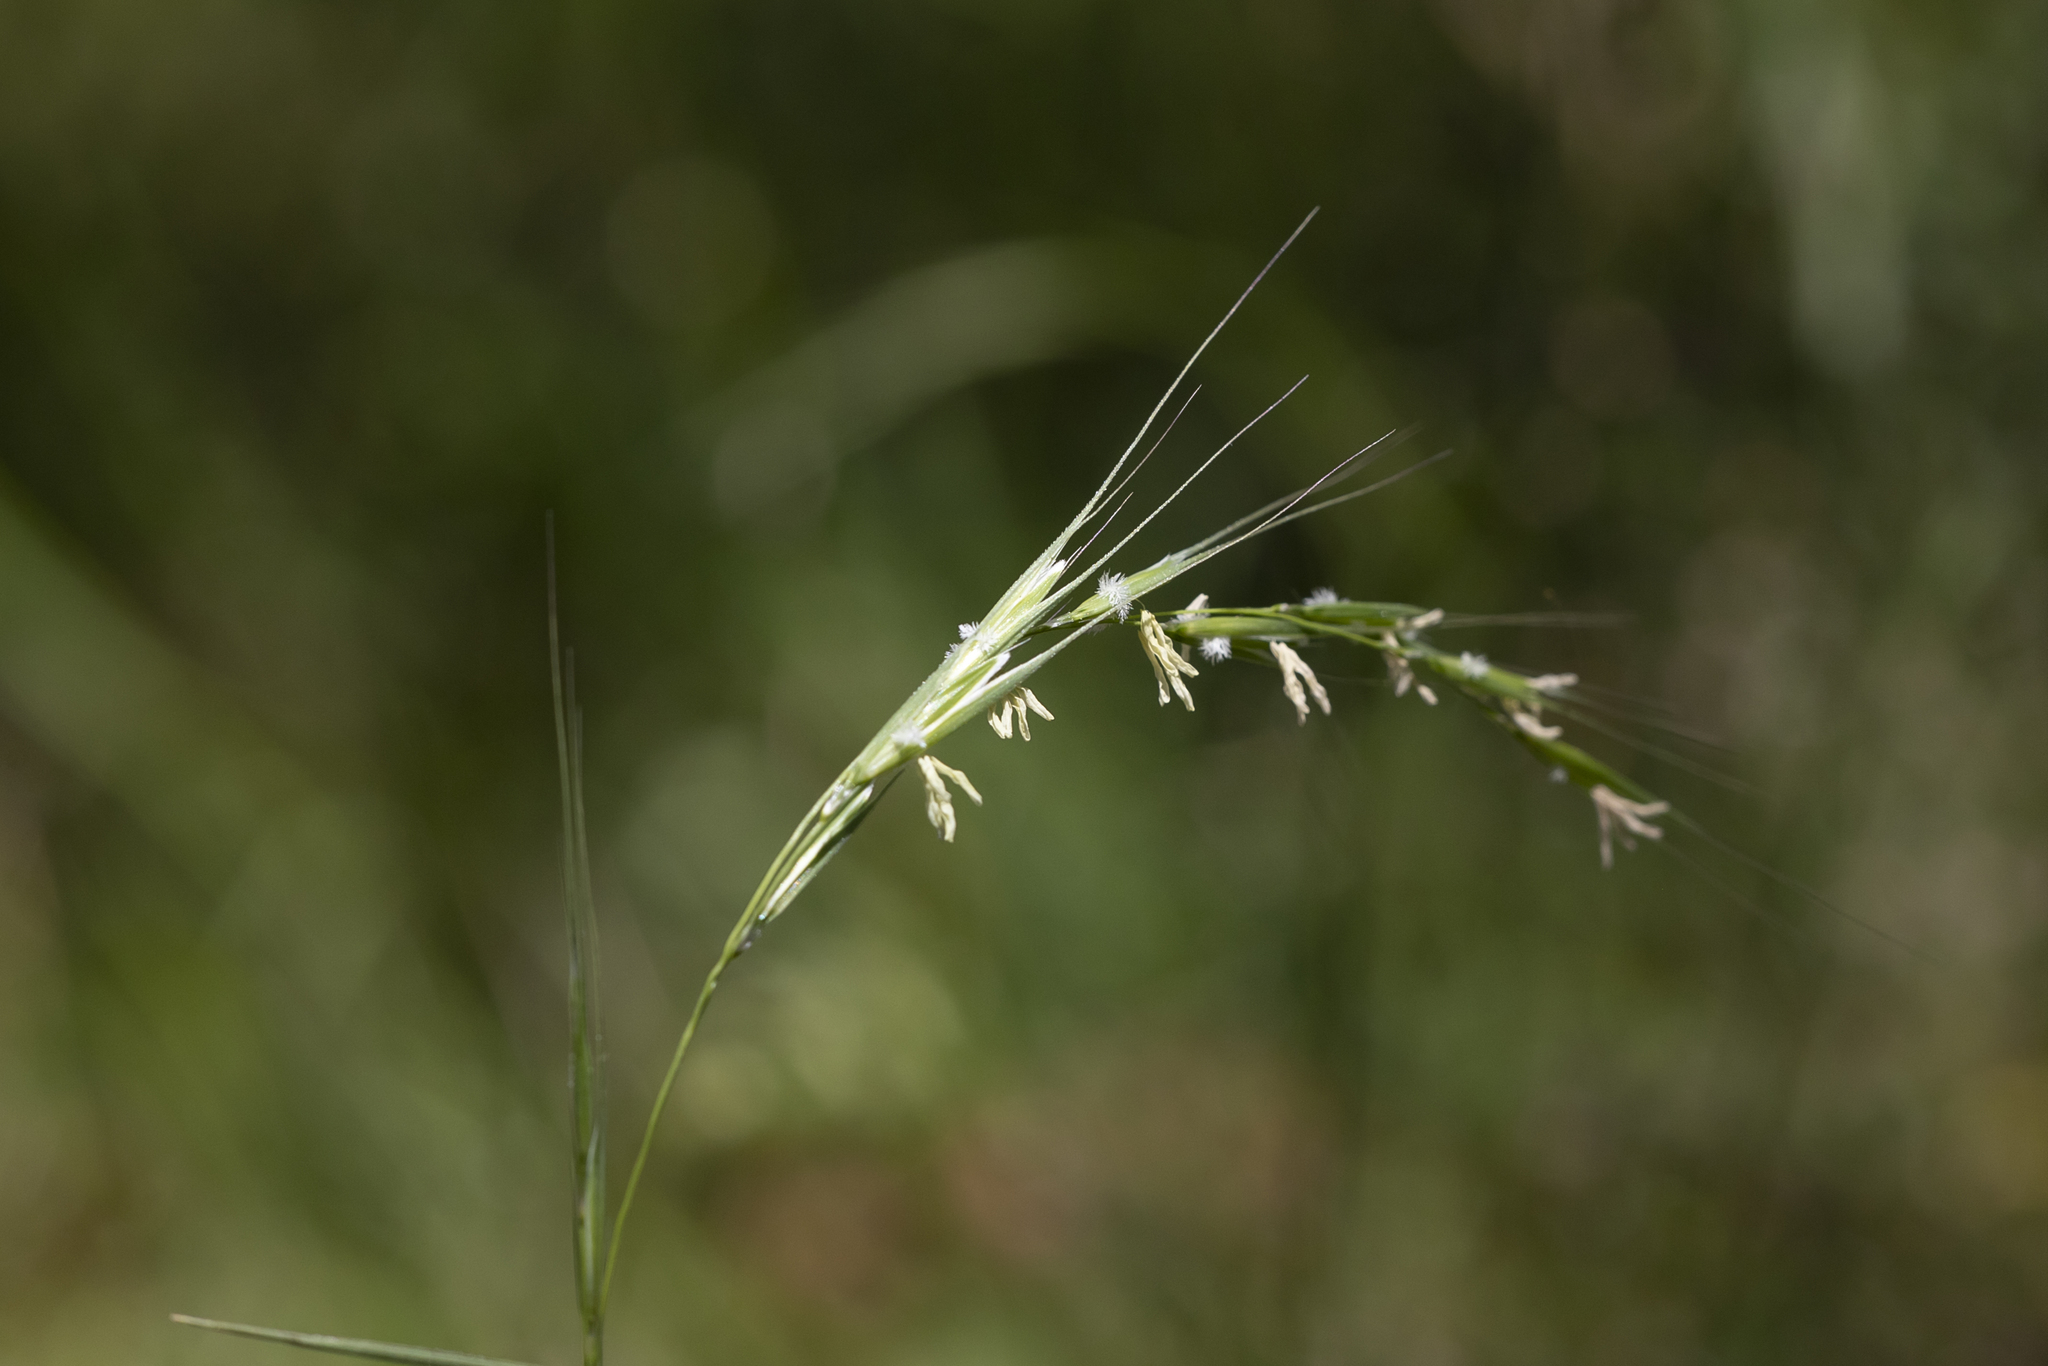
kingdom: Plantae
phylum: Tracheophyta
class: Liliopsida
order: Poales
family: Poaceae
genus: Microlaena
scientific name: Microlaena stipoides
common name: Meadow ricegrass
